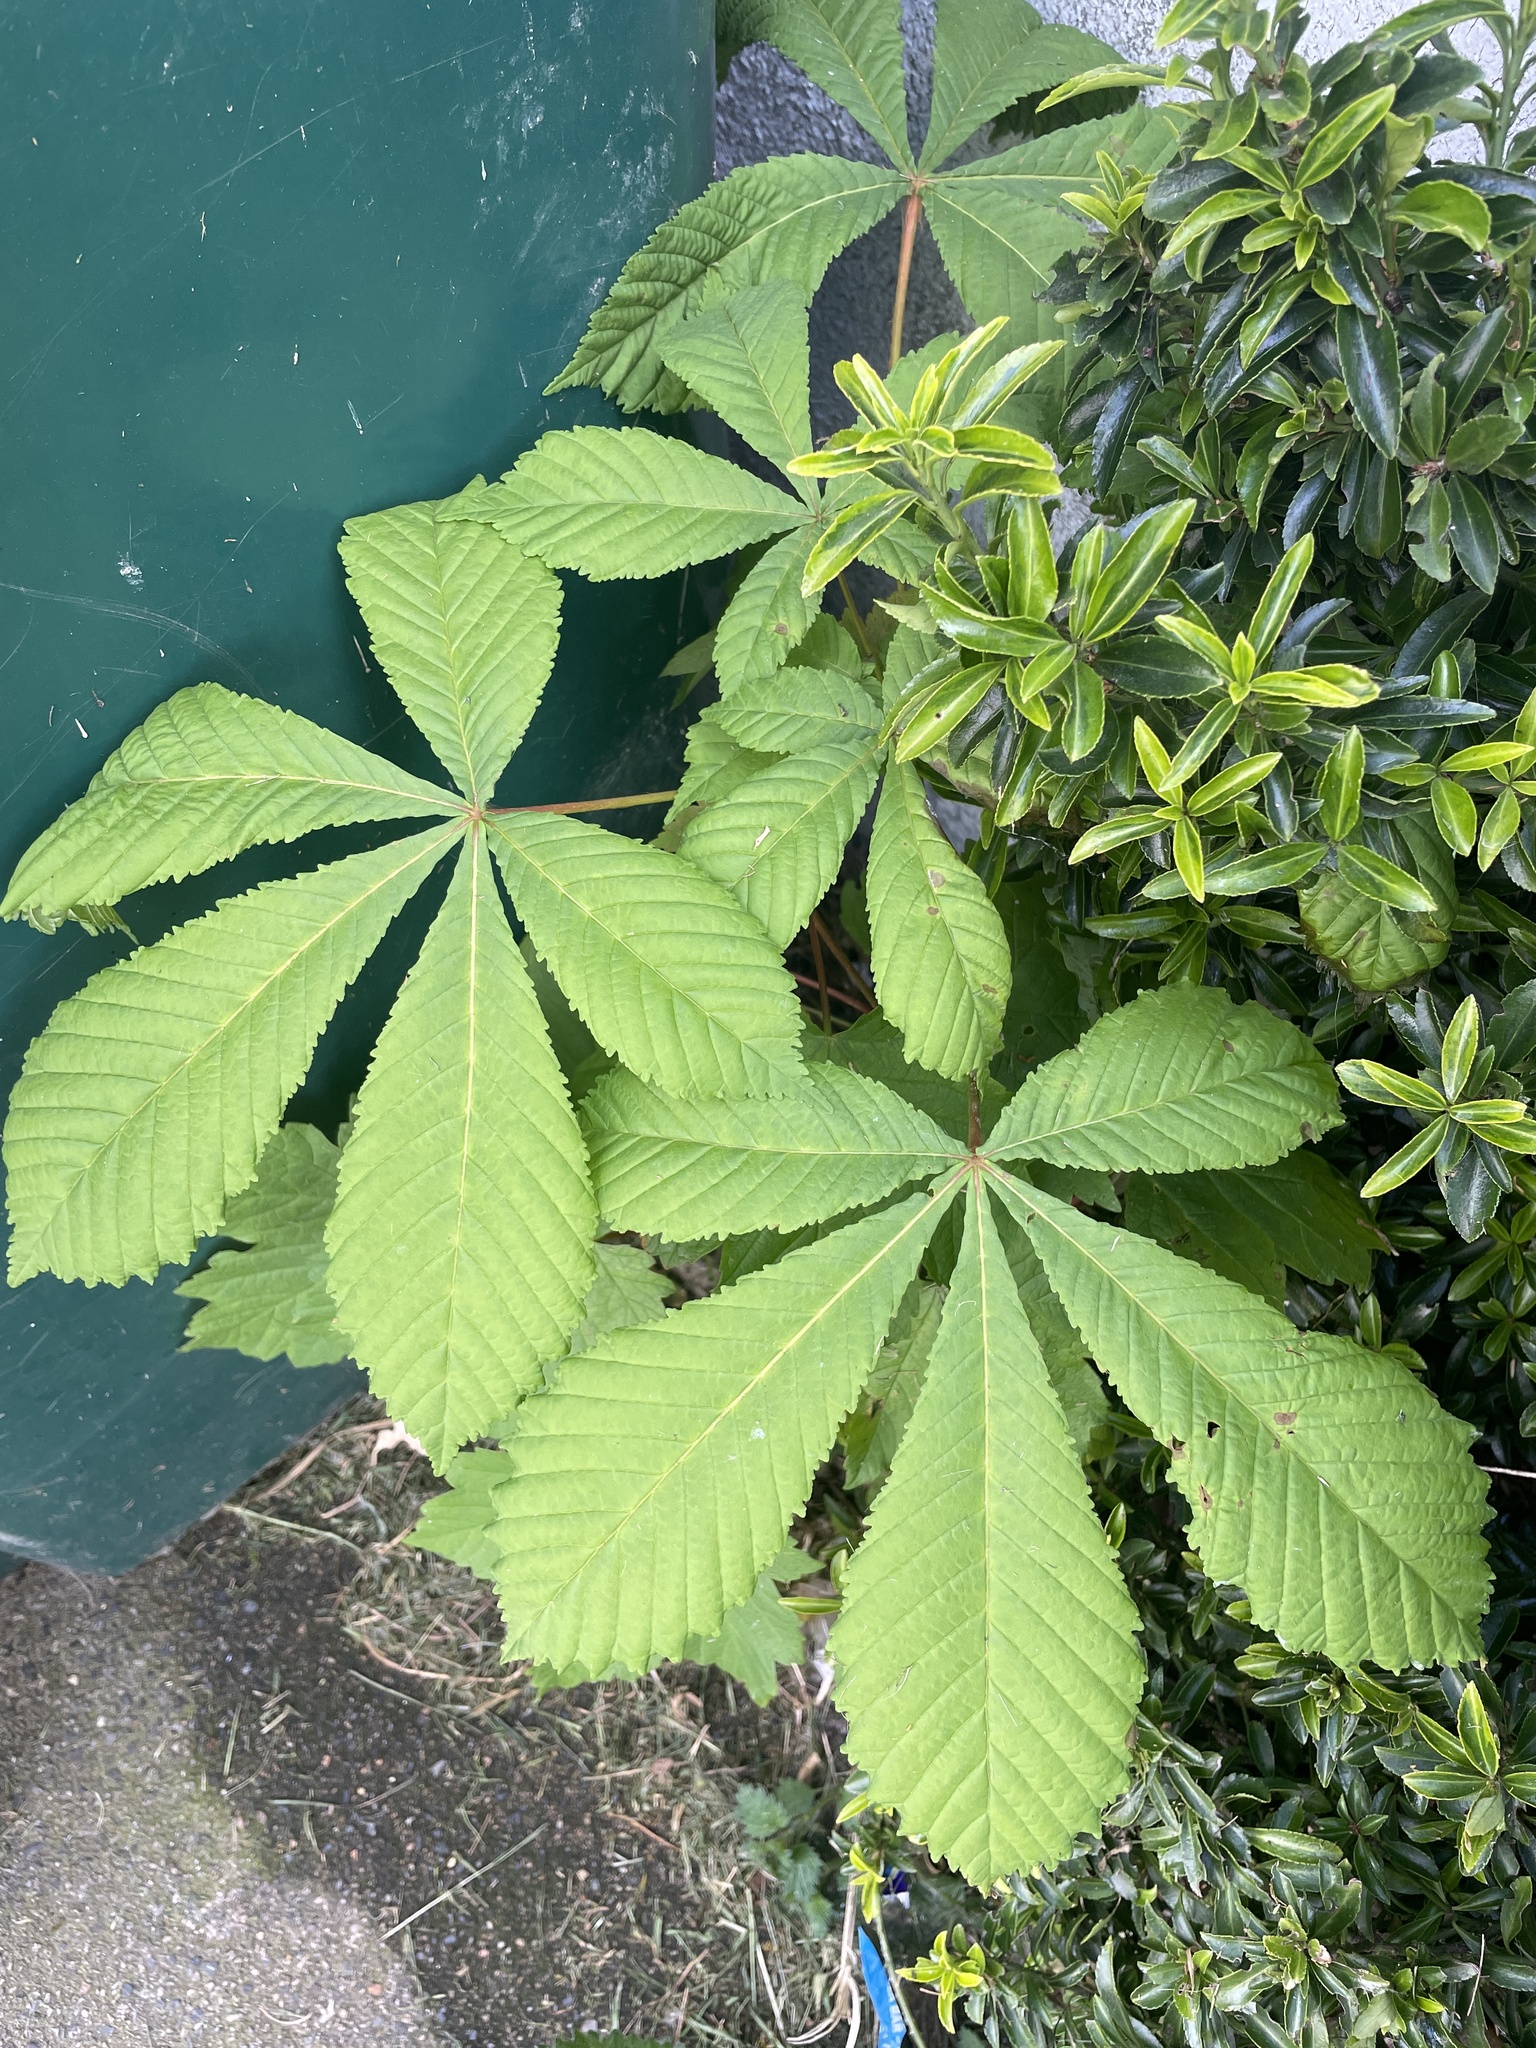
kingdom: Plantae
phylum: Tracheophyta
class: Magnoliopsida
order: Sapindales
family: Sapindaceae
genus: Aesculus
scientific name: Aesculus hippocastanum
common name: Horse-chestnut
